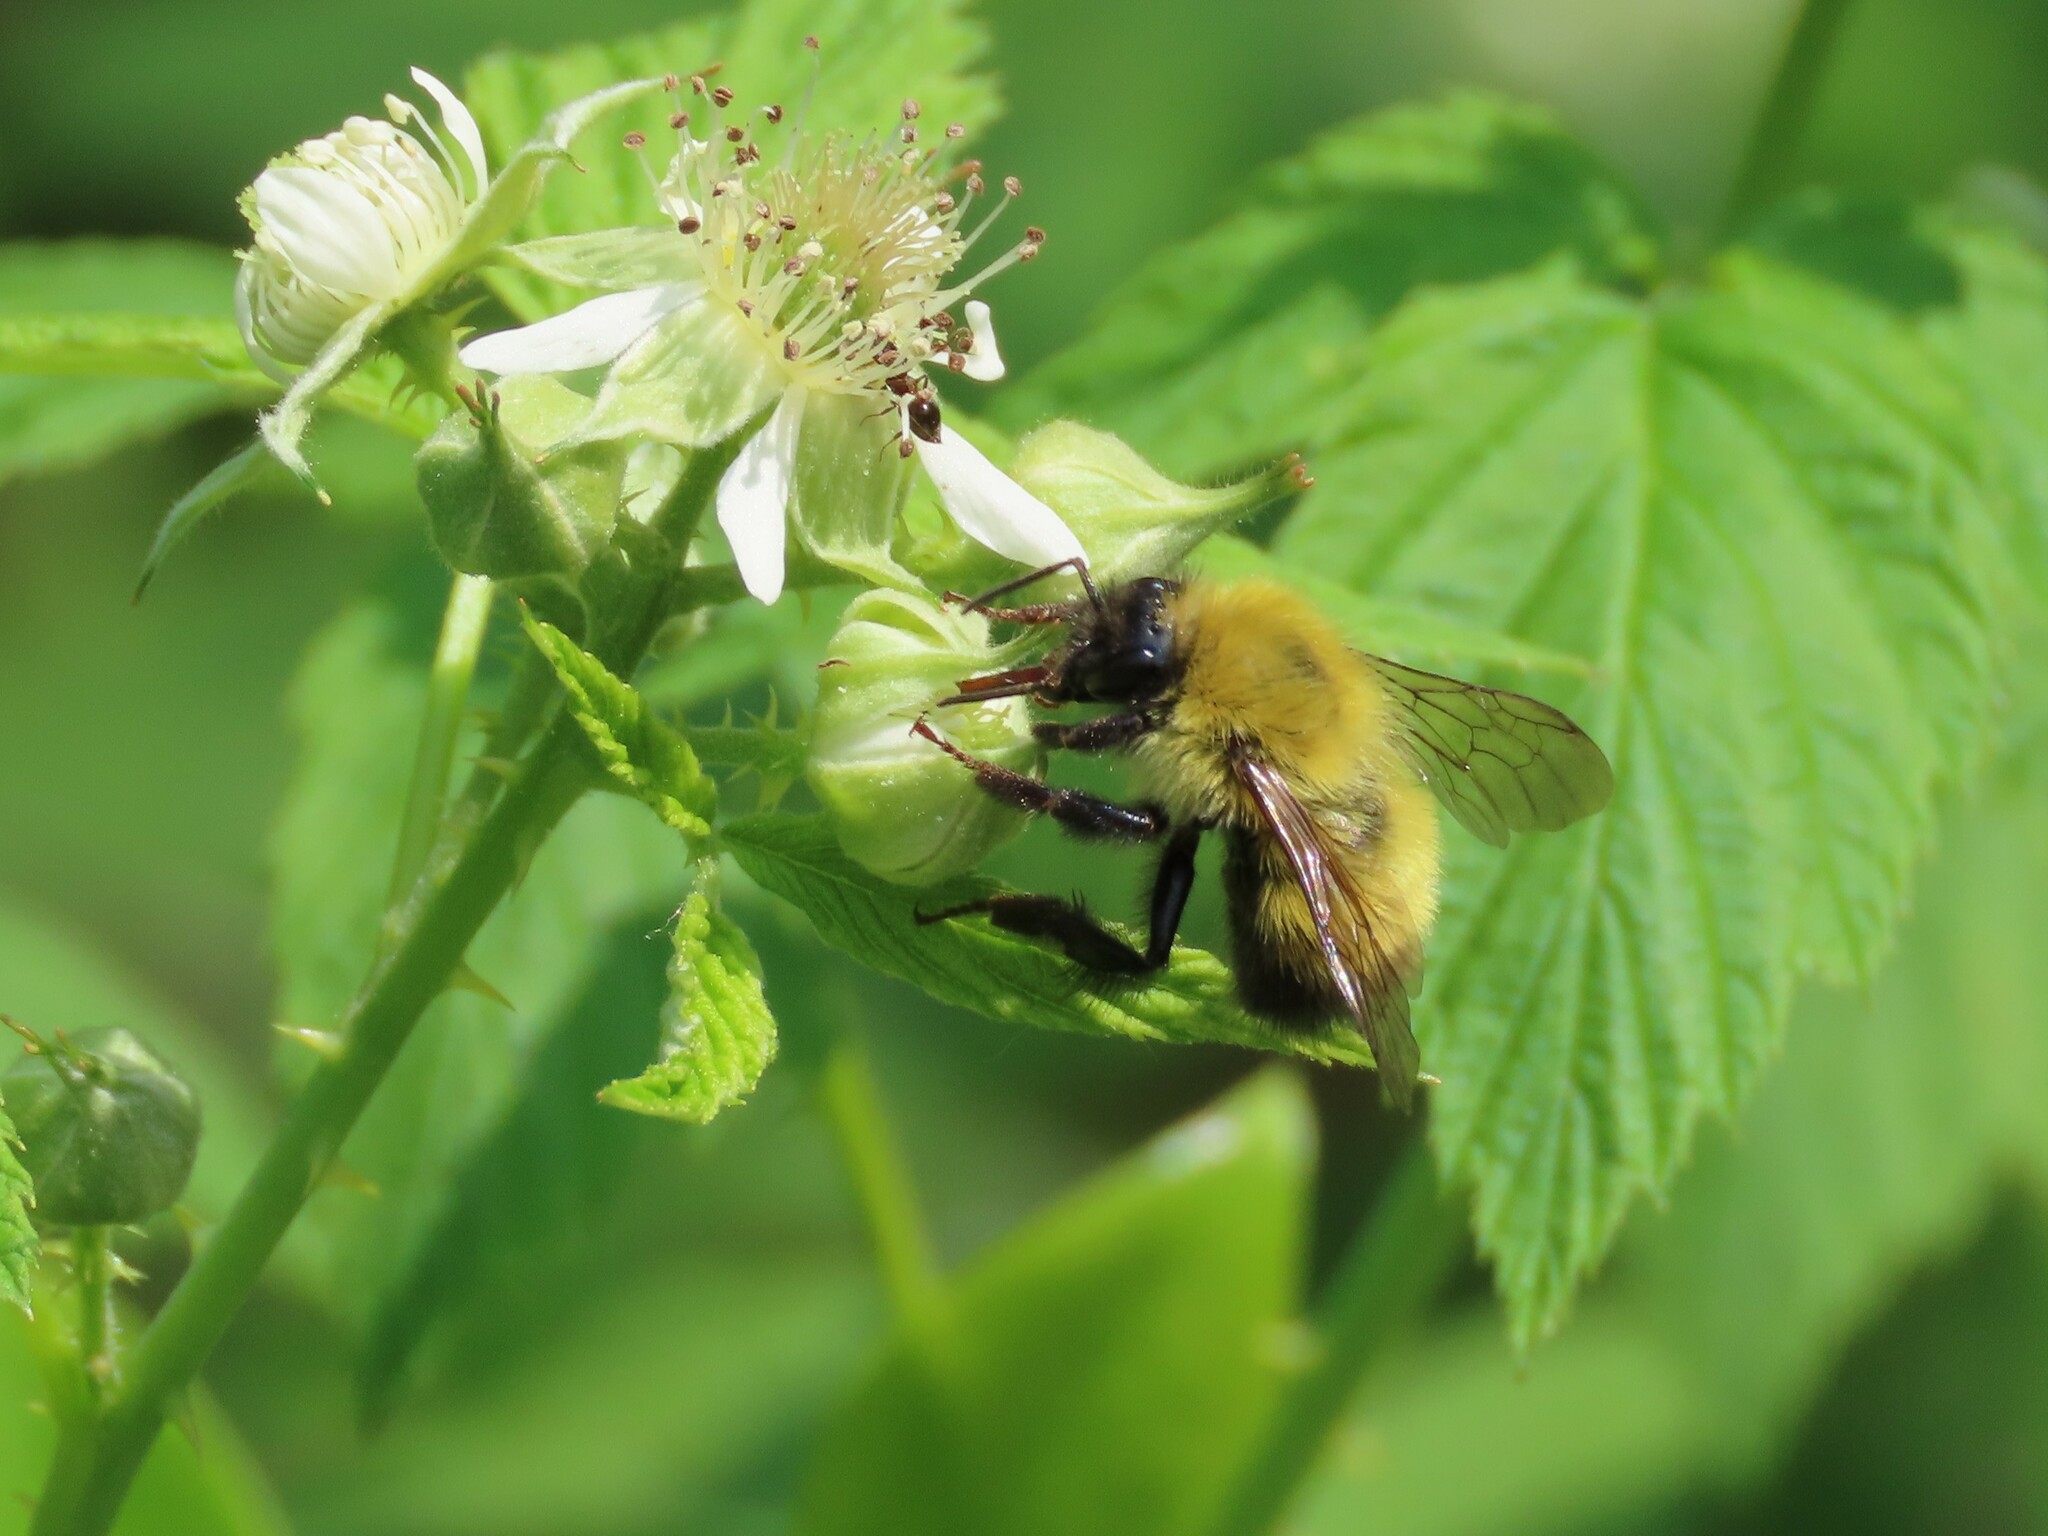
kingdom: Animalia
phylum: Arthropoda
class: Insecta
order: Hymenoptera
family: Apidae
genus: Bombus
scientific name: Bombus perplexus
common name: Confusing bumble bee
